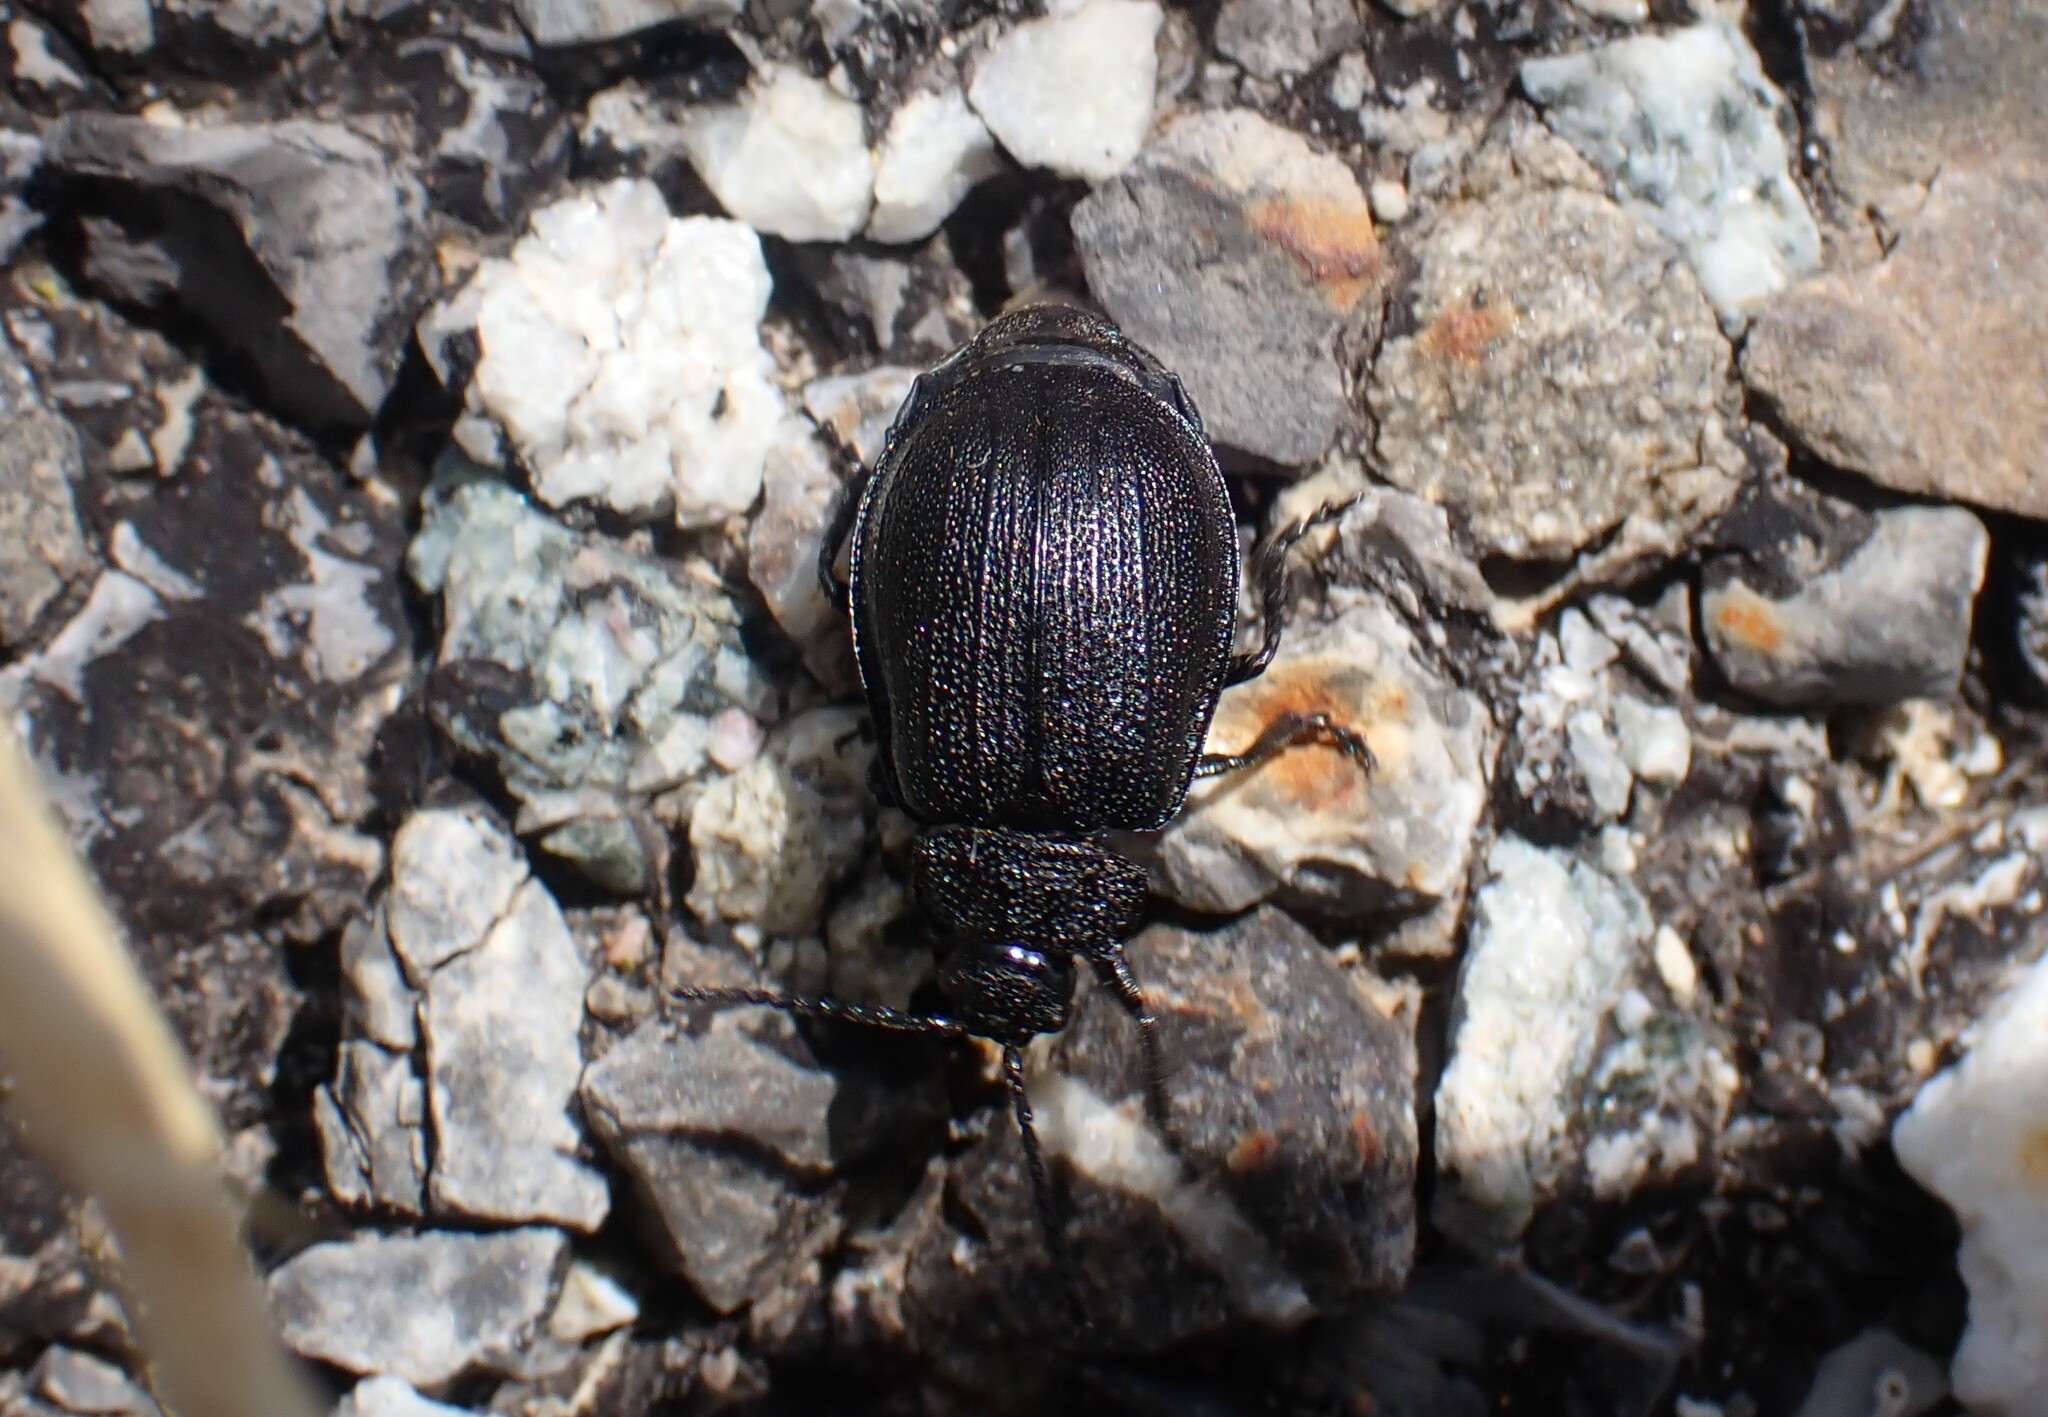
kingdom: Animalia
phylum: Arthropoda
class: Insecta
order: Coleoptera
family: Chrysomelidae
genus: Galeruca
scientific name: Galeruca tanaceti
